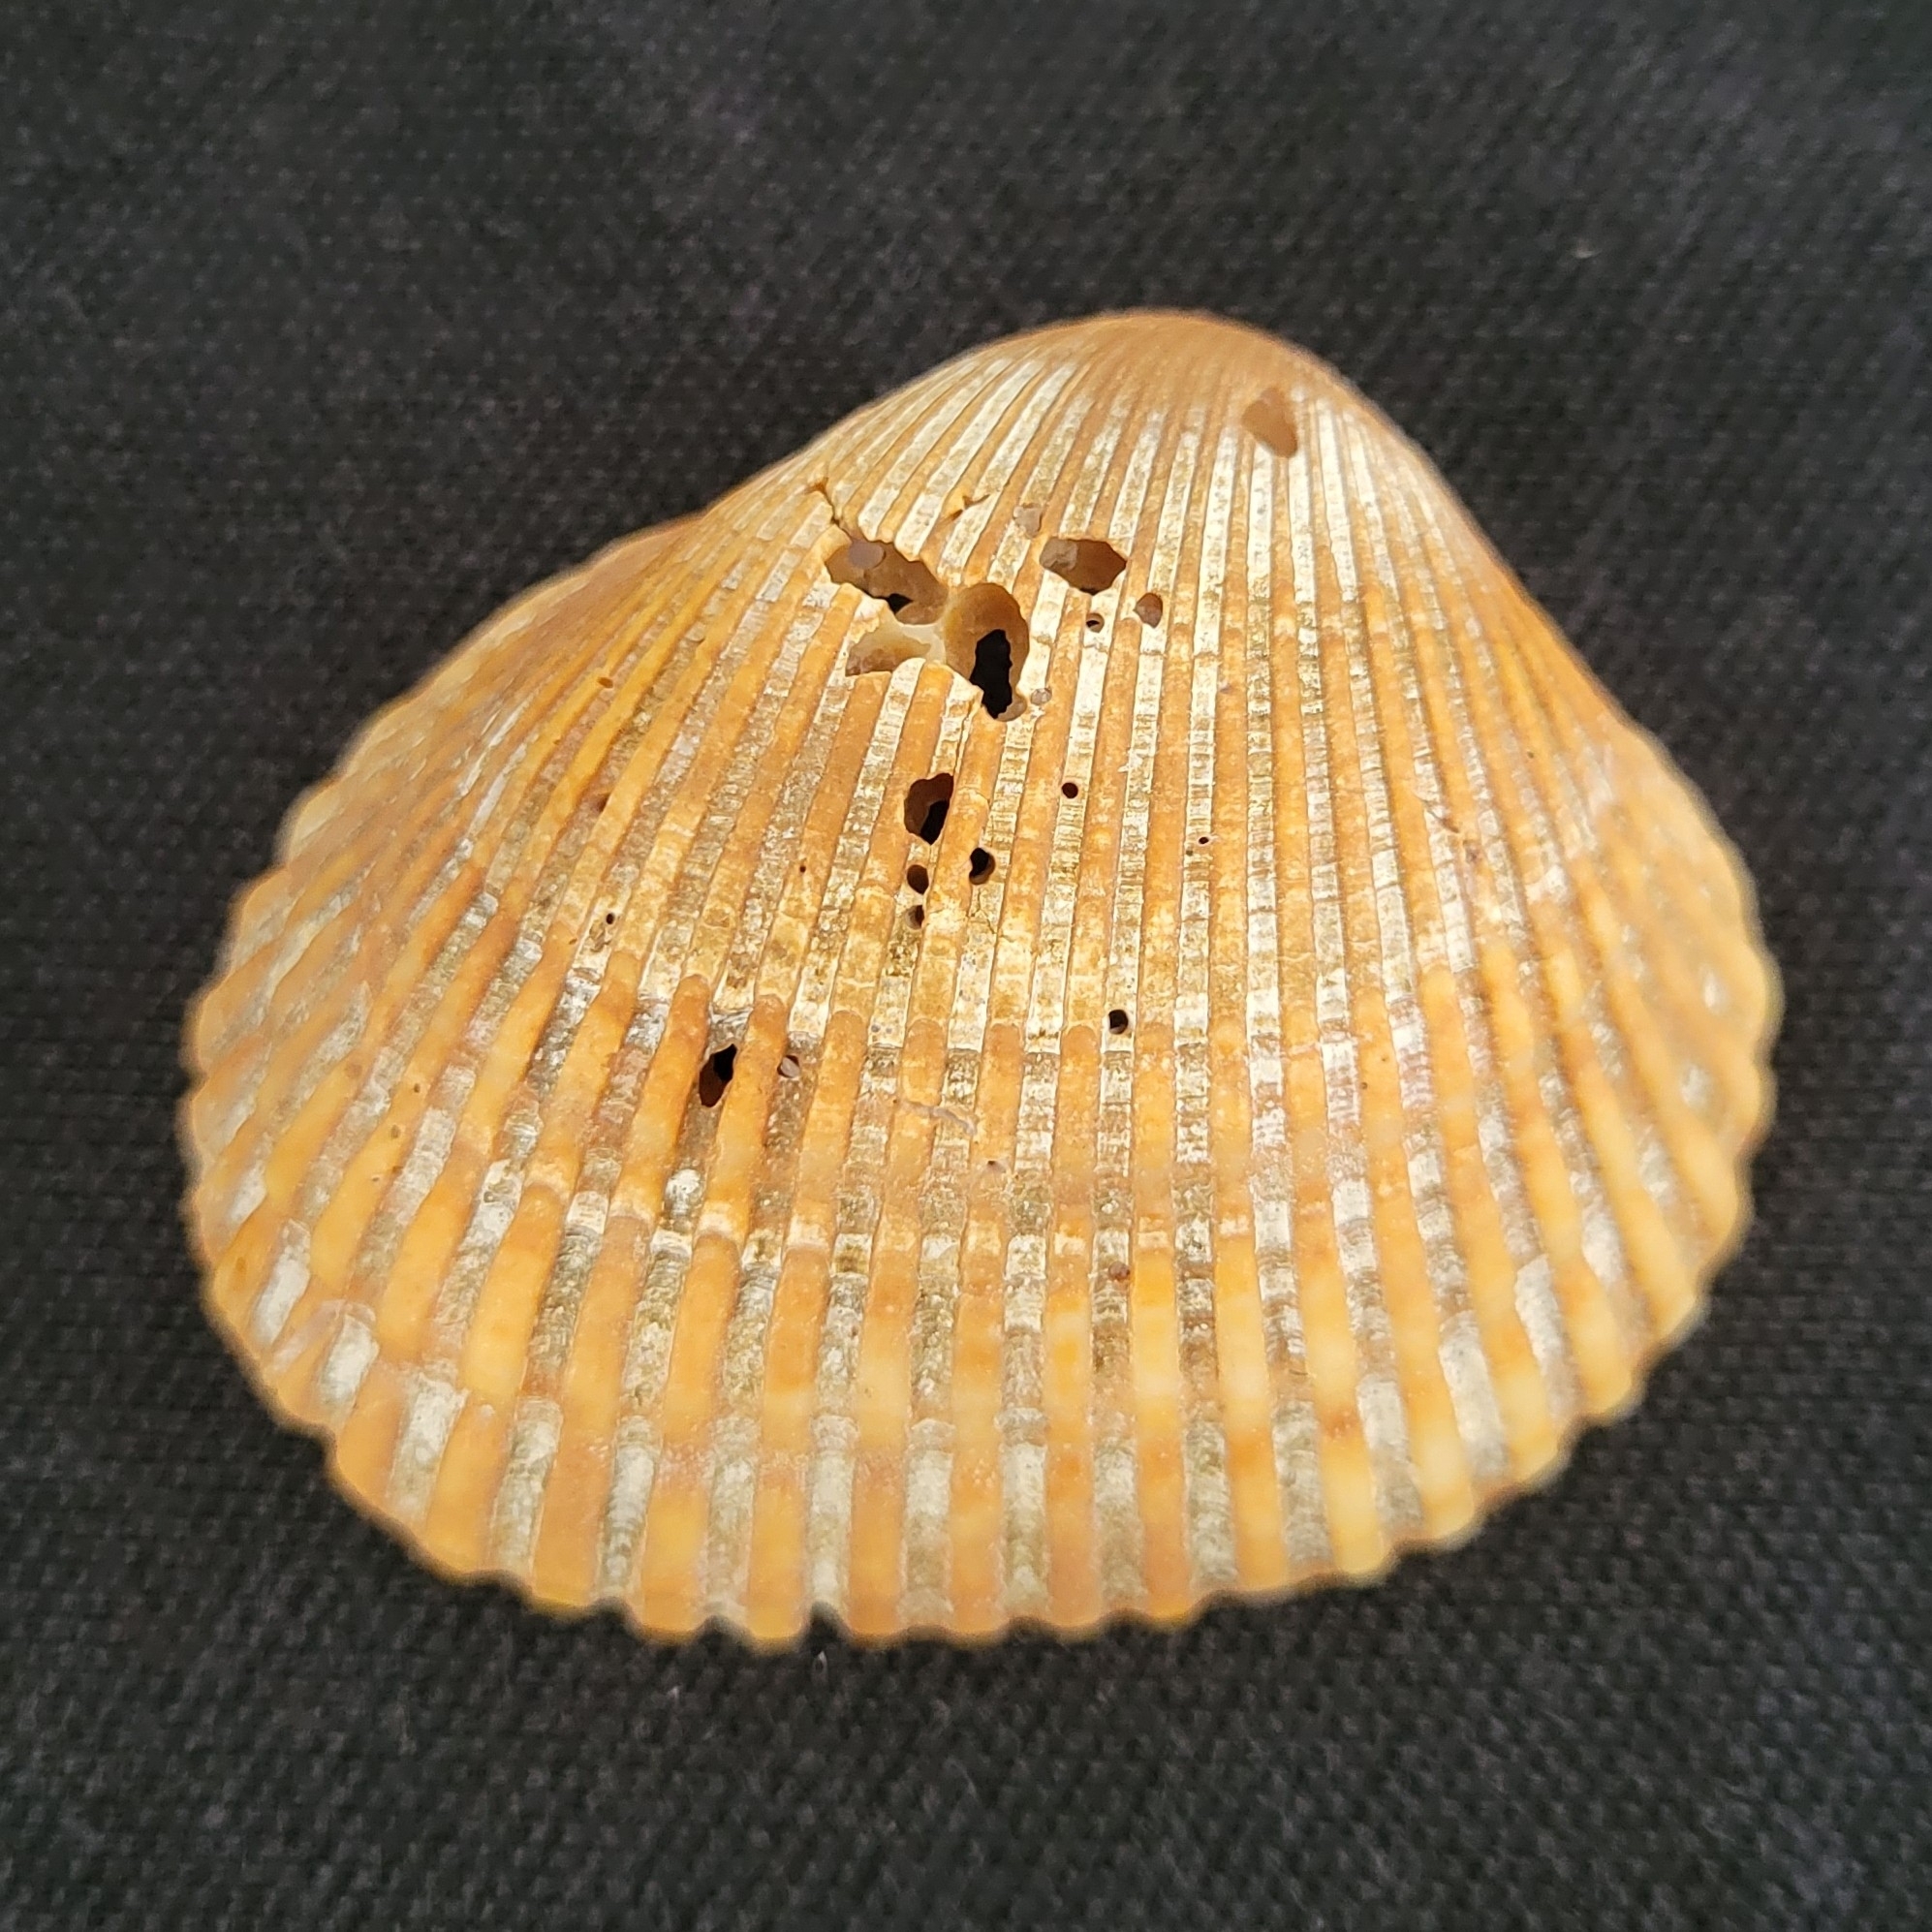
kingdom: Animalia
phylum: Mollusca
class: Bivalvia
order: Arcida
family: Arcidae
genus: Lunarca
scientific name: Lunarca ovalis
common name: Blood ark
